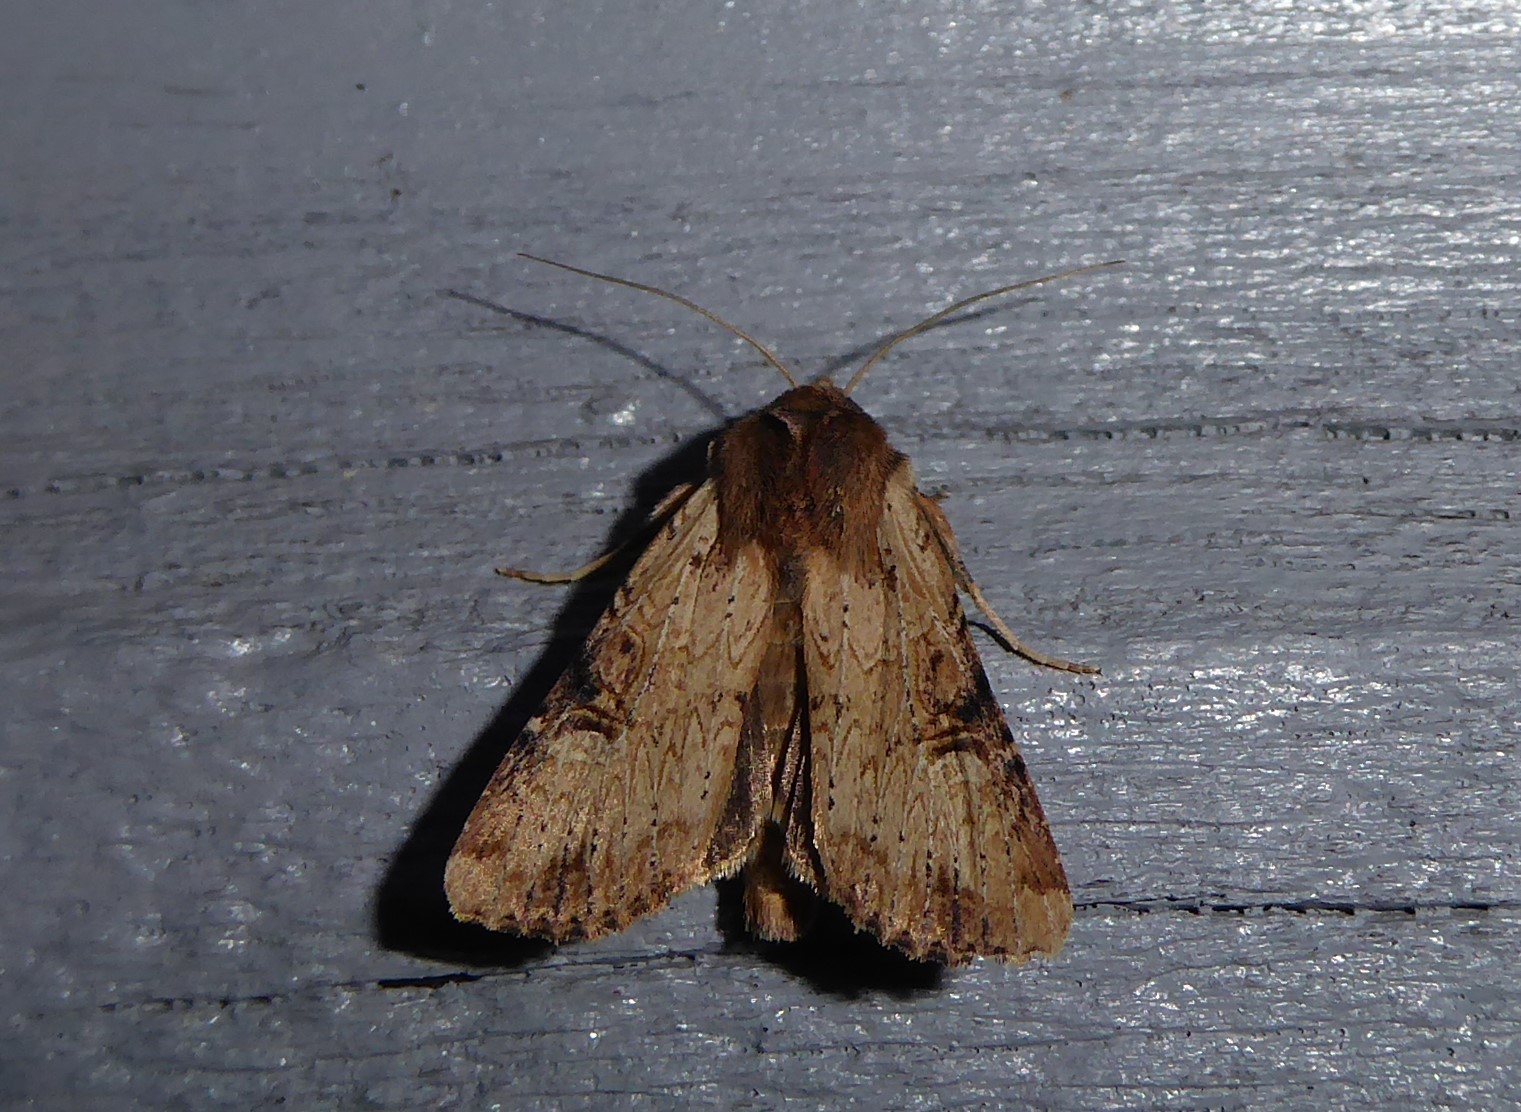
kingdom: Animalia
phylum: Arthropoda
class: Insecta
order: Lepidoptera
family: Noctuidae
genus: Ichneutica
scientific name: Ichneutica omoplaca
